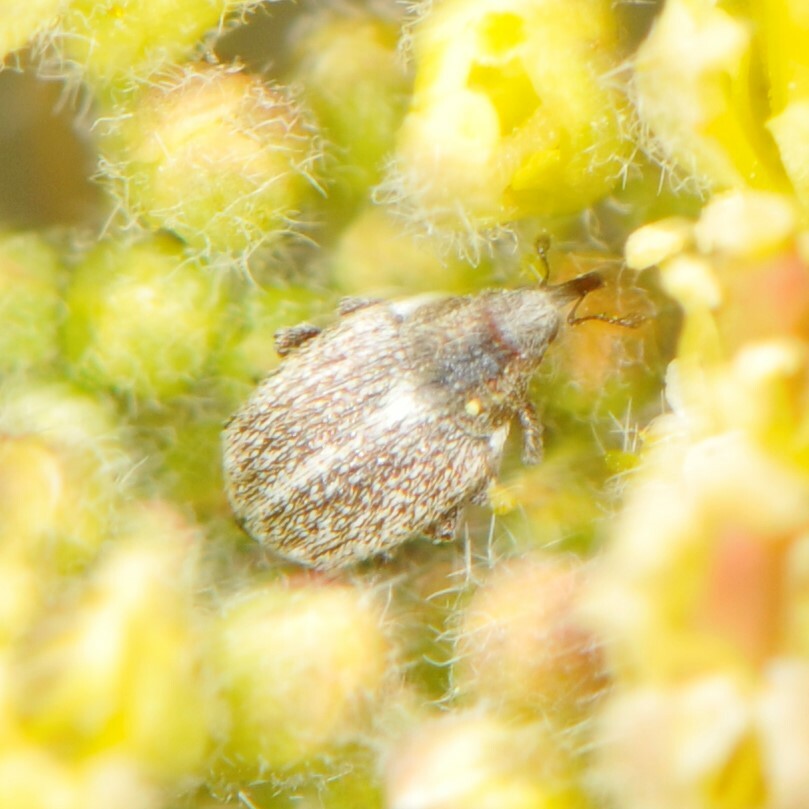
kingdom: Animalia
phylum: Arthropoda
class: Insecta
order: Coleoptera
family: Curculionidae
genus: Ceutorhynchus
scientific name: Ceutorhynchus pusillus
